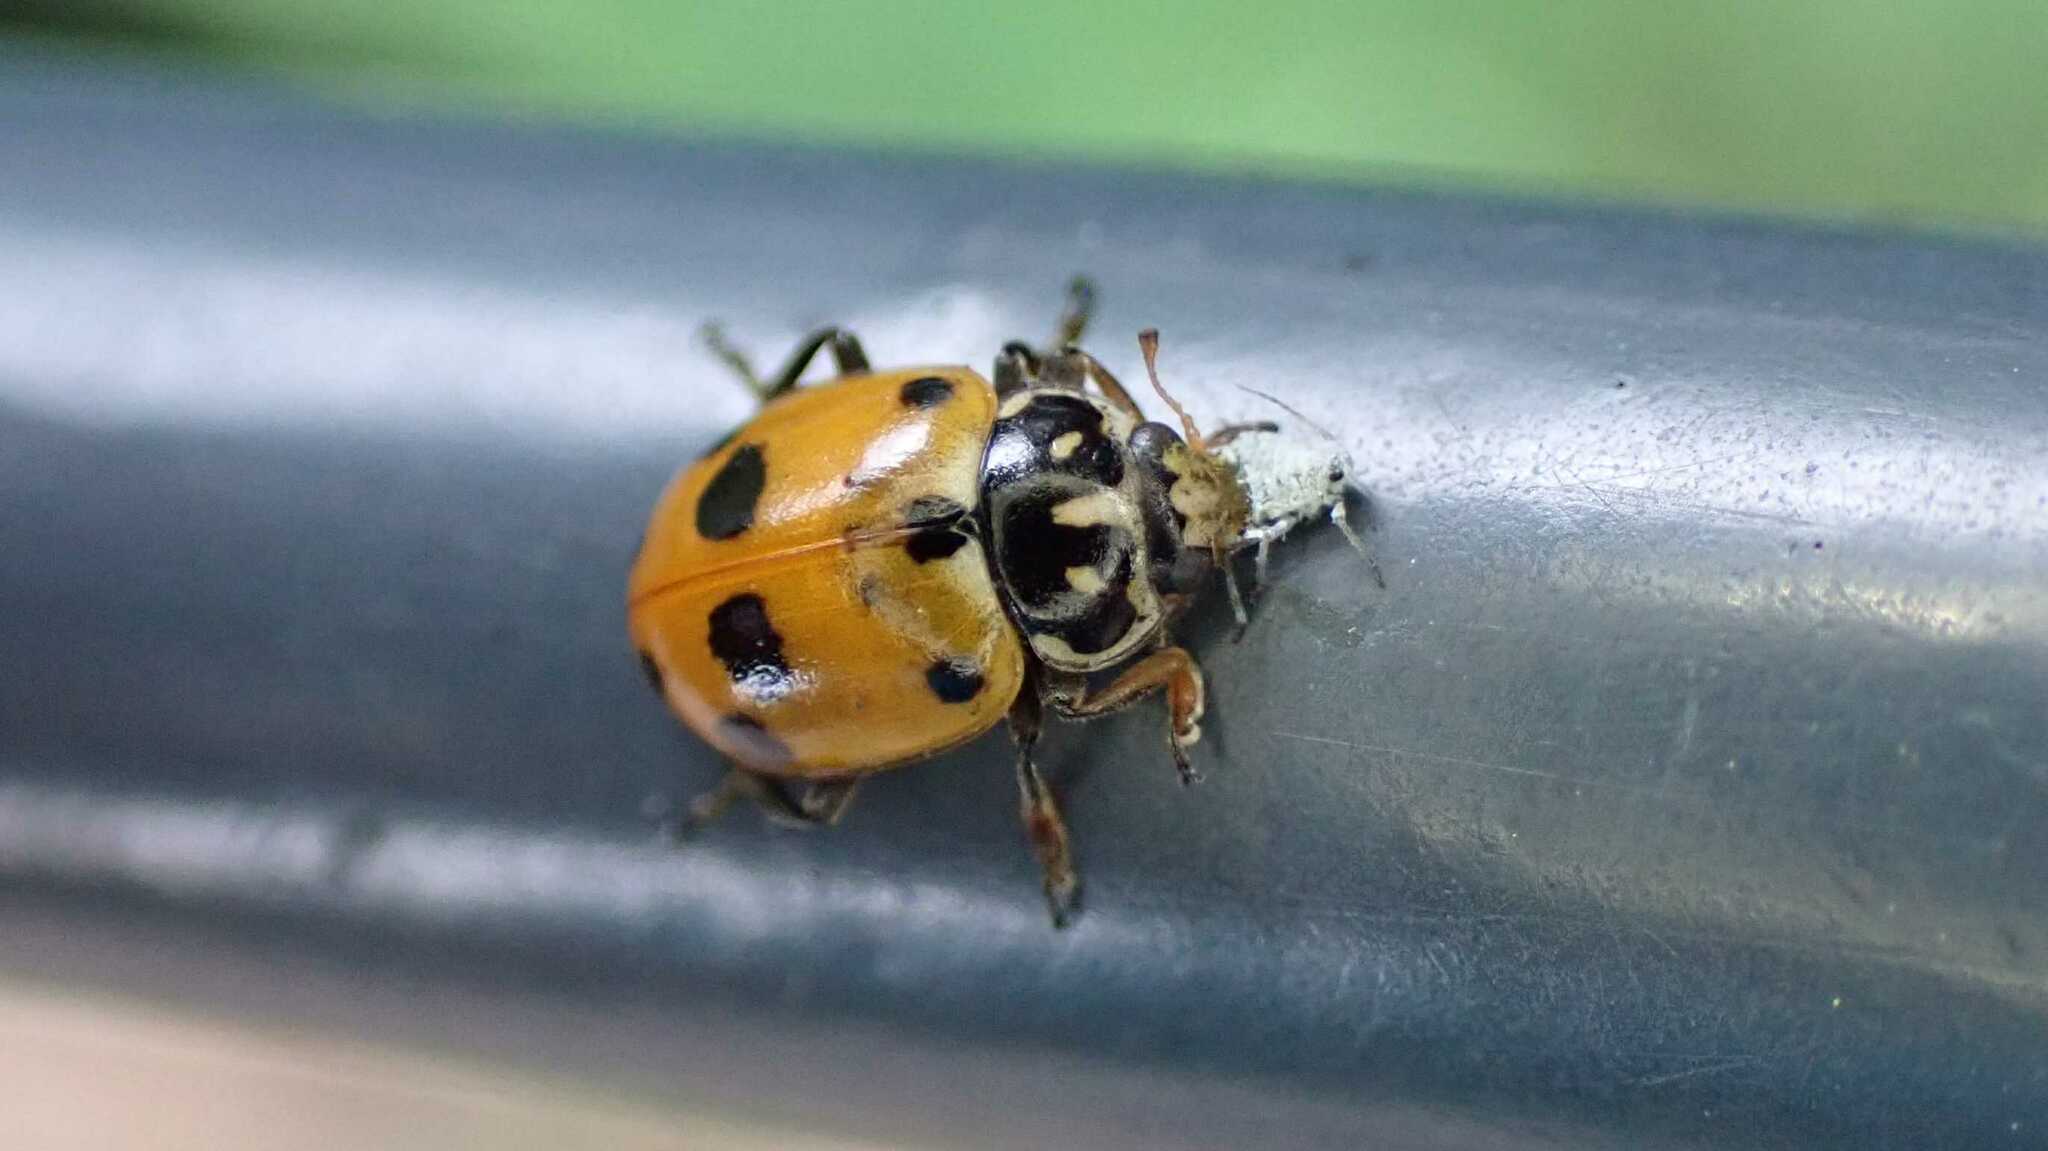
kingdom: Animalia
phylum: Arthropoda
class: Insecta
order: Coleoptera
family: Coccinellidae
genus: Hippodamia
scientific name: Hippodamia variegata
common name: Ladybird beetle
